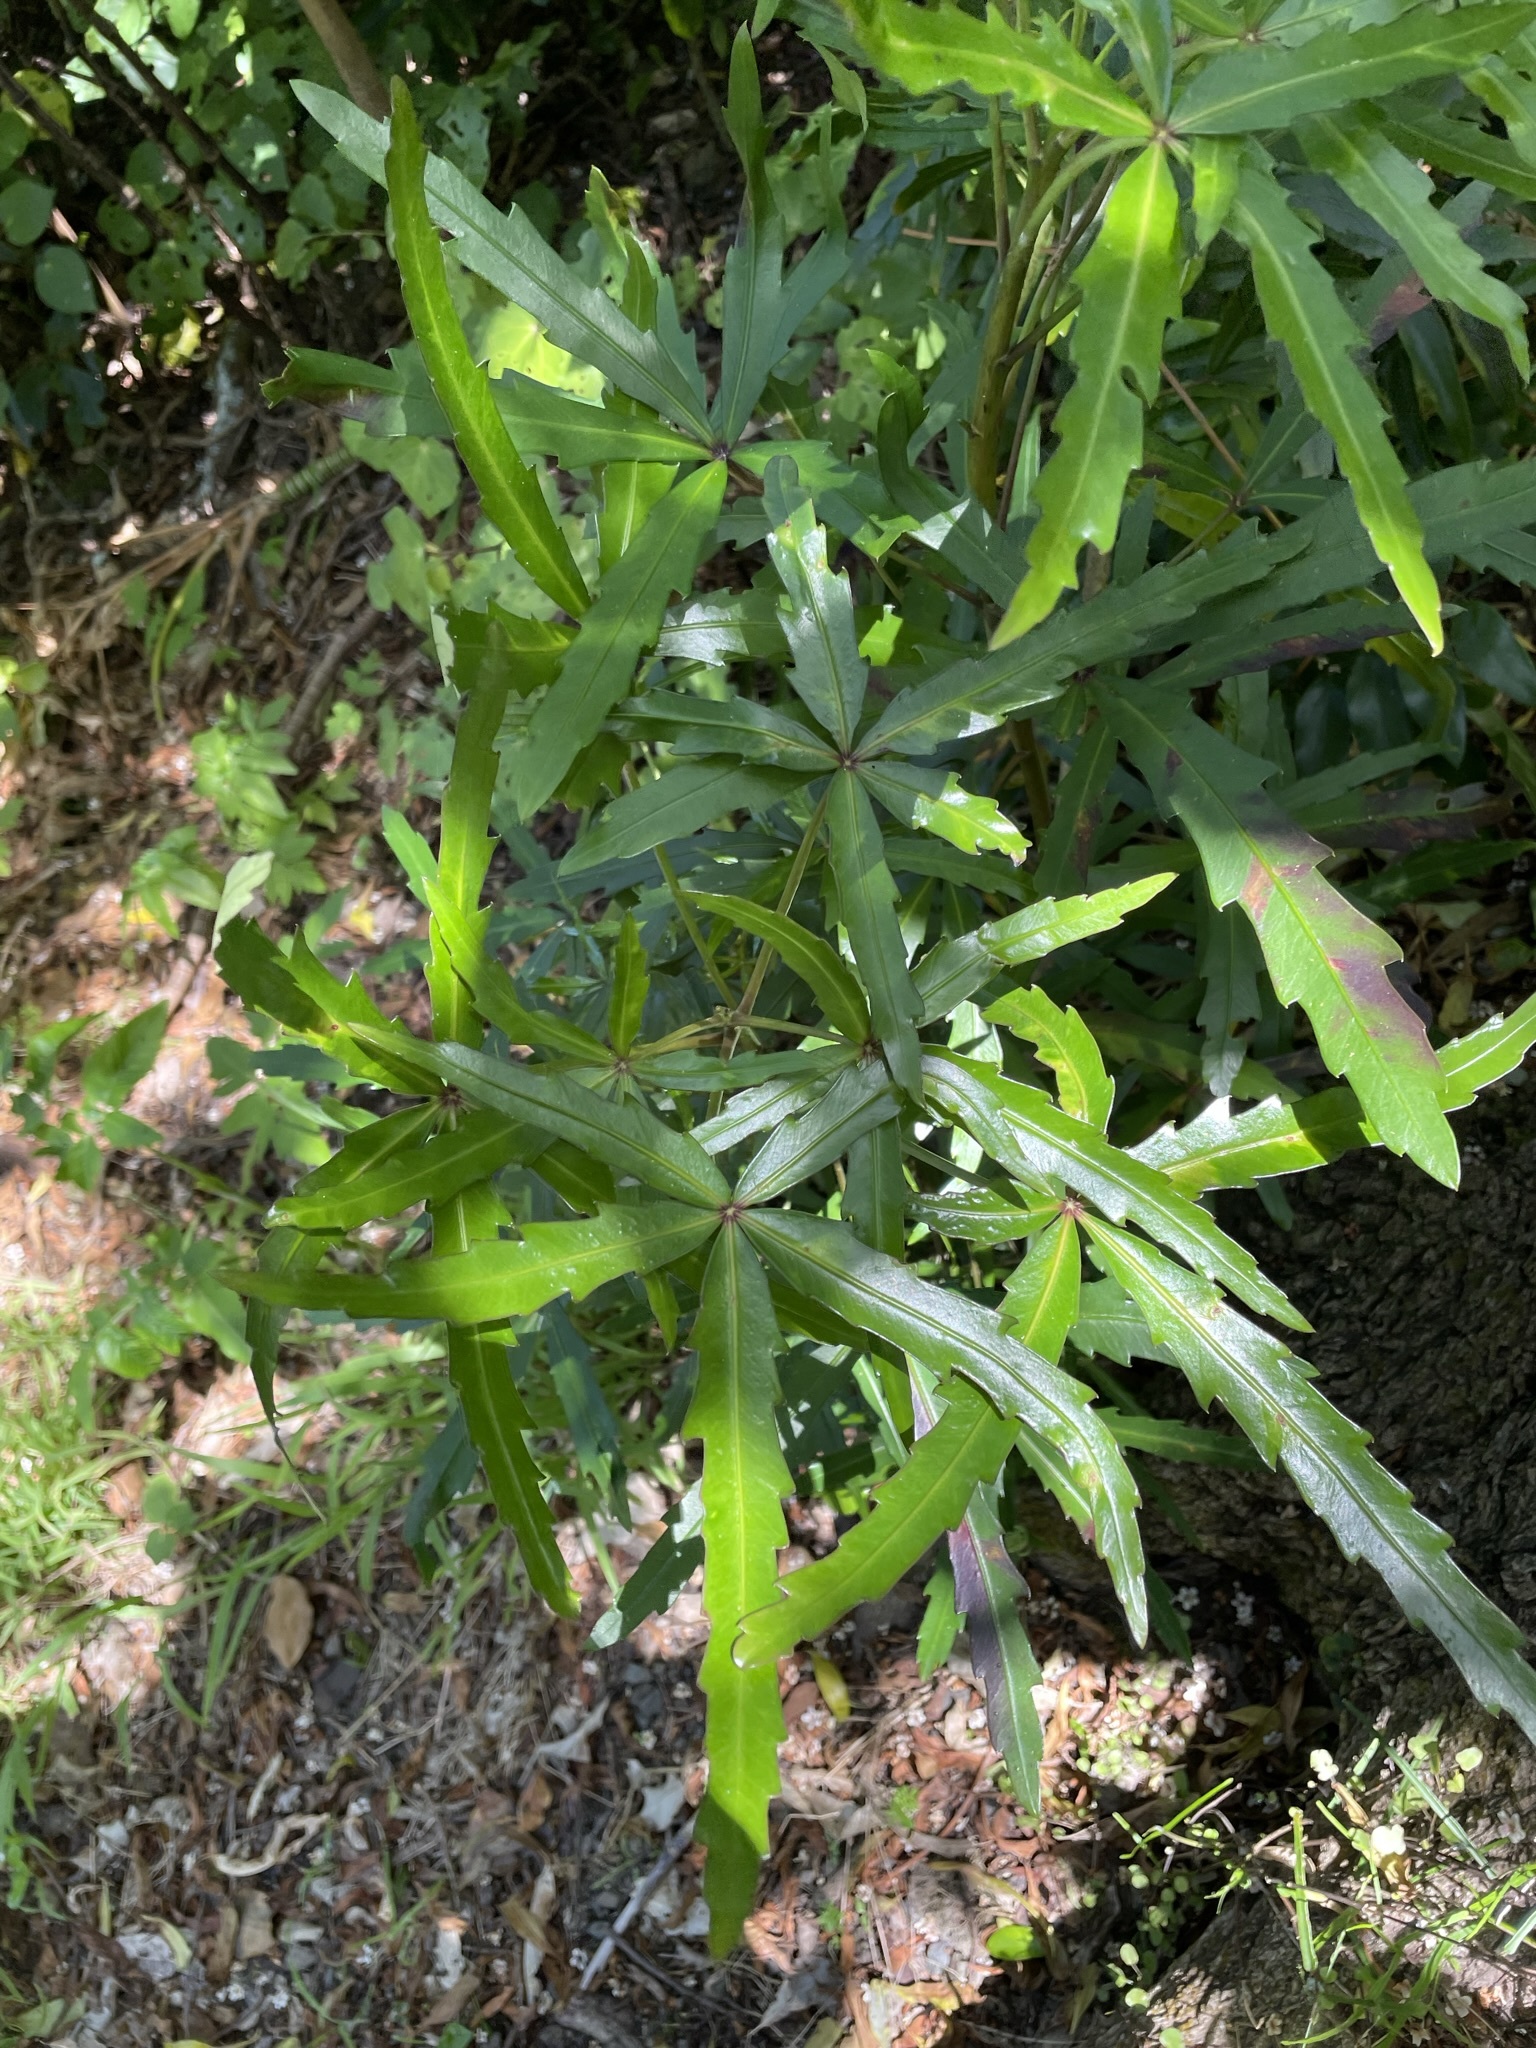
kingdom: Plantae
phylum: Tracheophyta
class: Magnoliopsida
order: Apiales
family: Araliaceae
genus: Pseudopanax
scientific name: Pseudopanax
